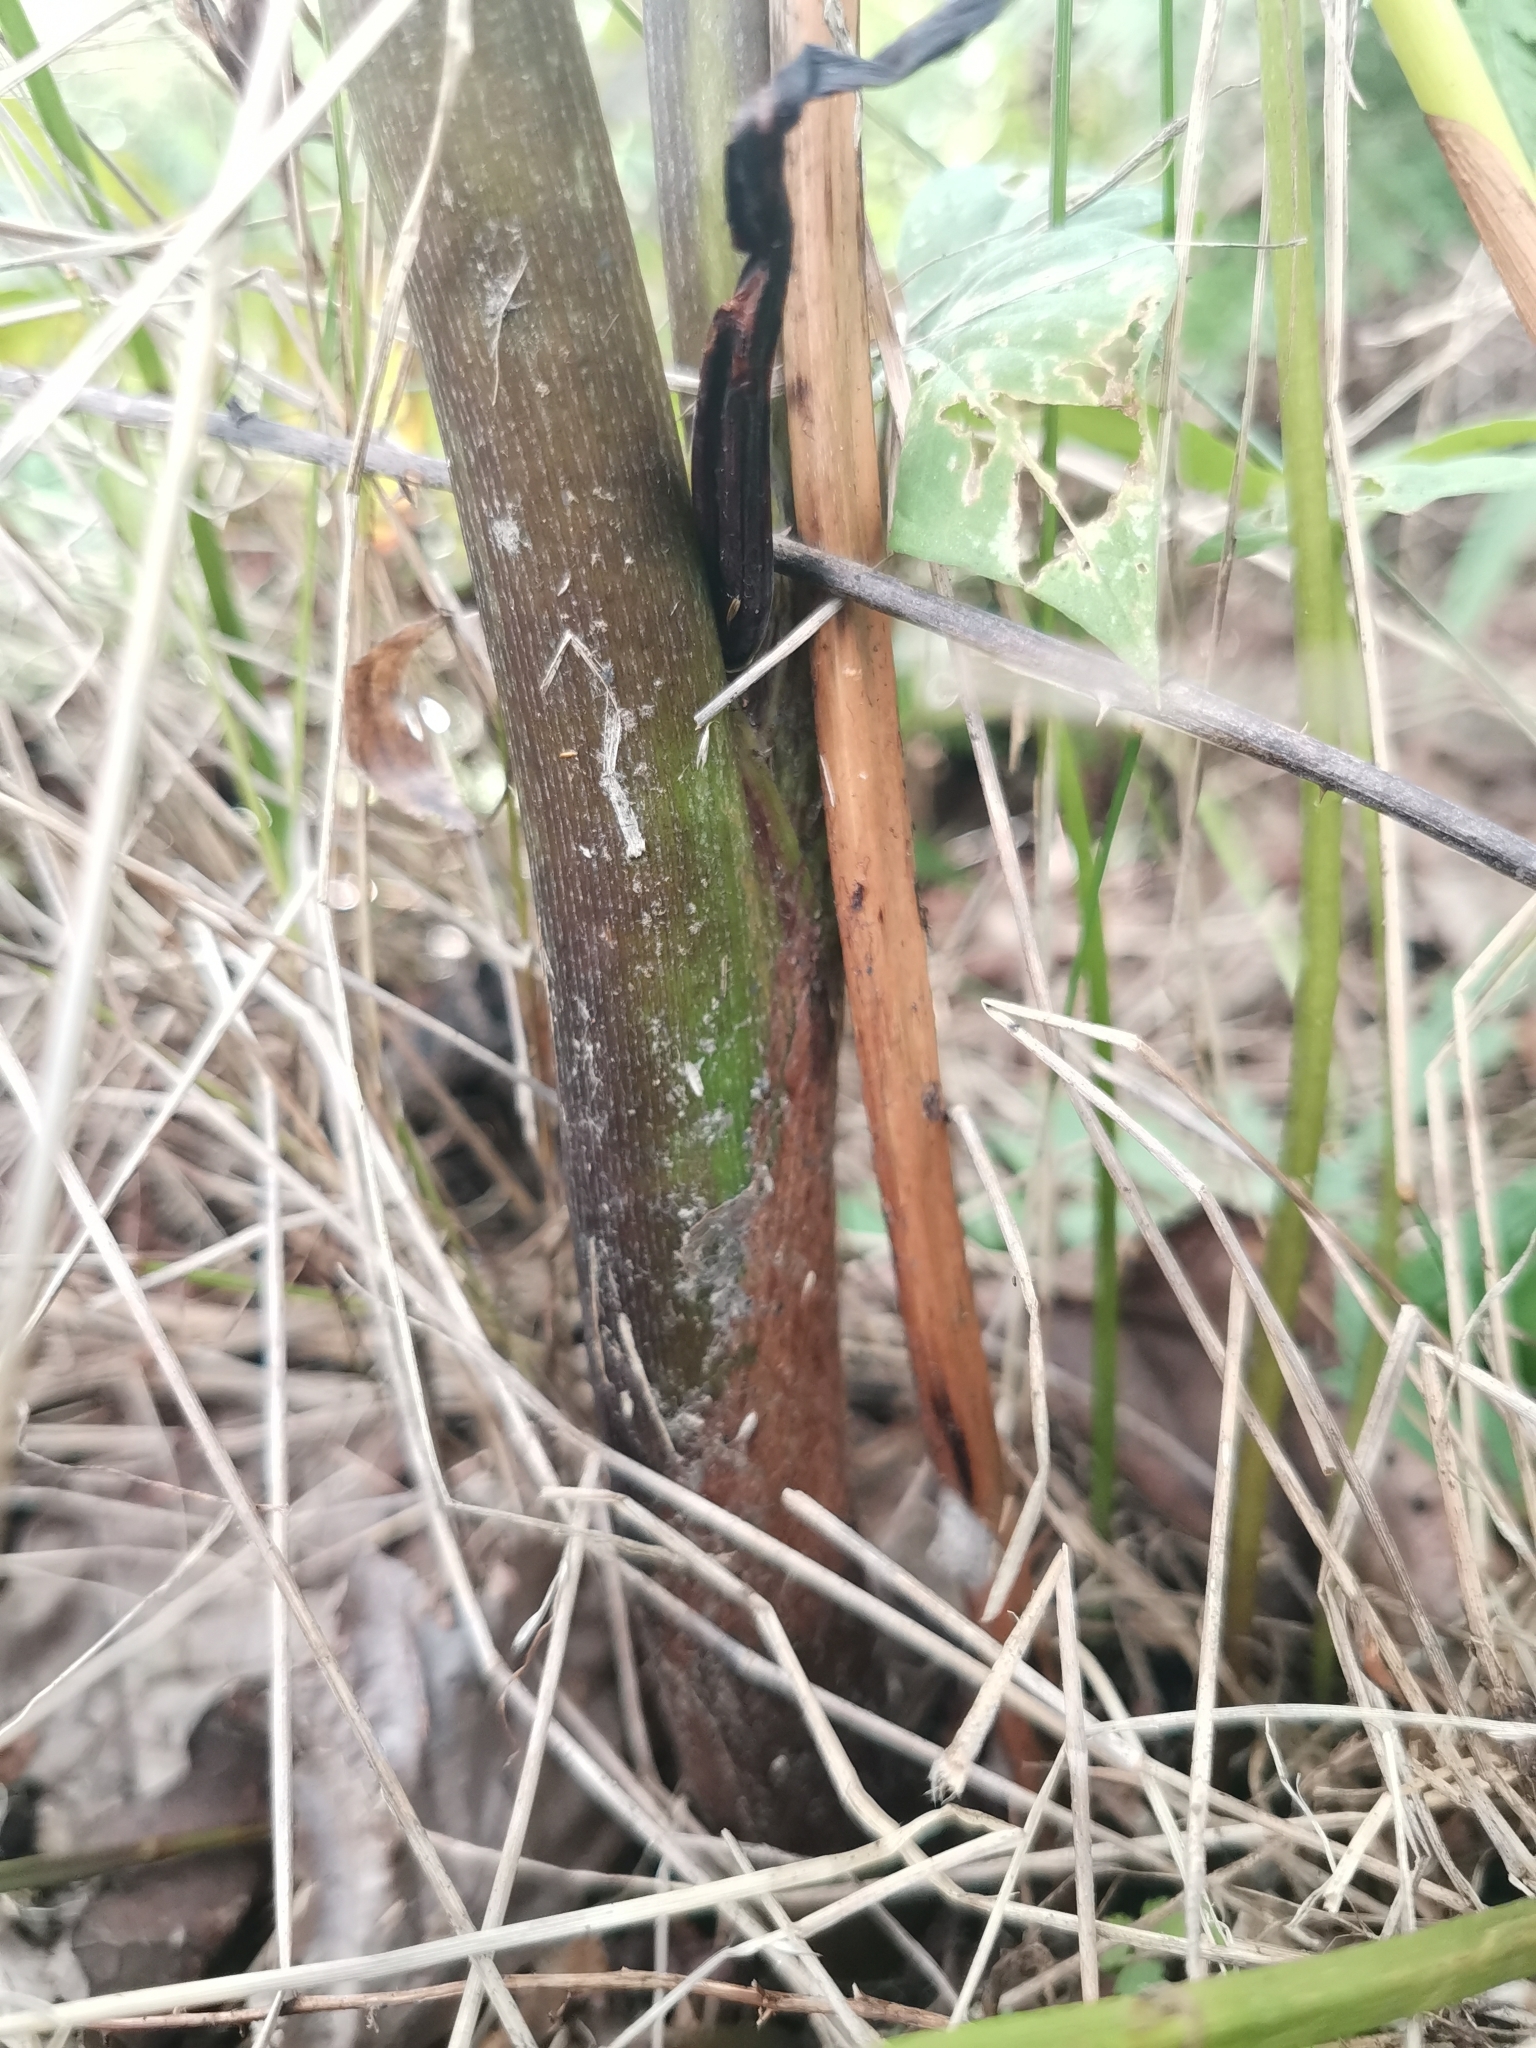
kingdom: Plantae
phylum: Tracheophyta
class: Liliopsida
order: Alismatales
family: Araceae
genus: Arisaema
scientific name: Arisaema amurense
